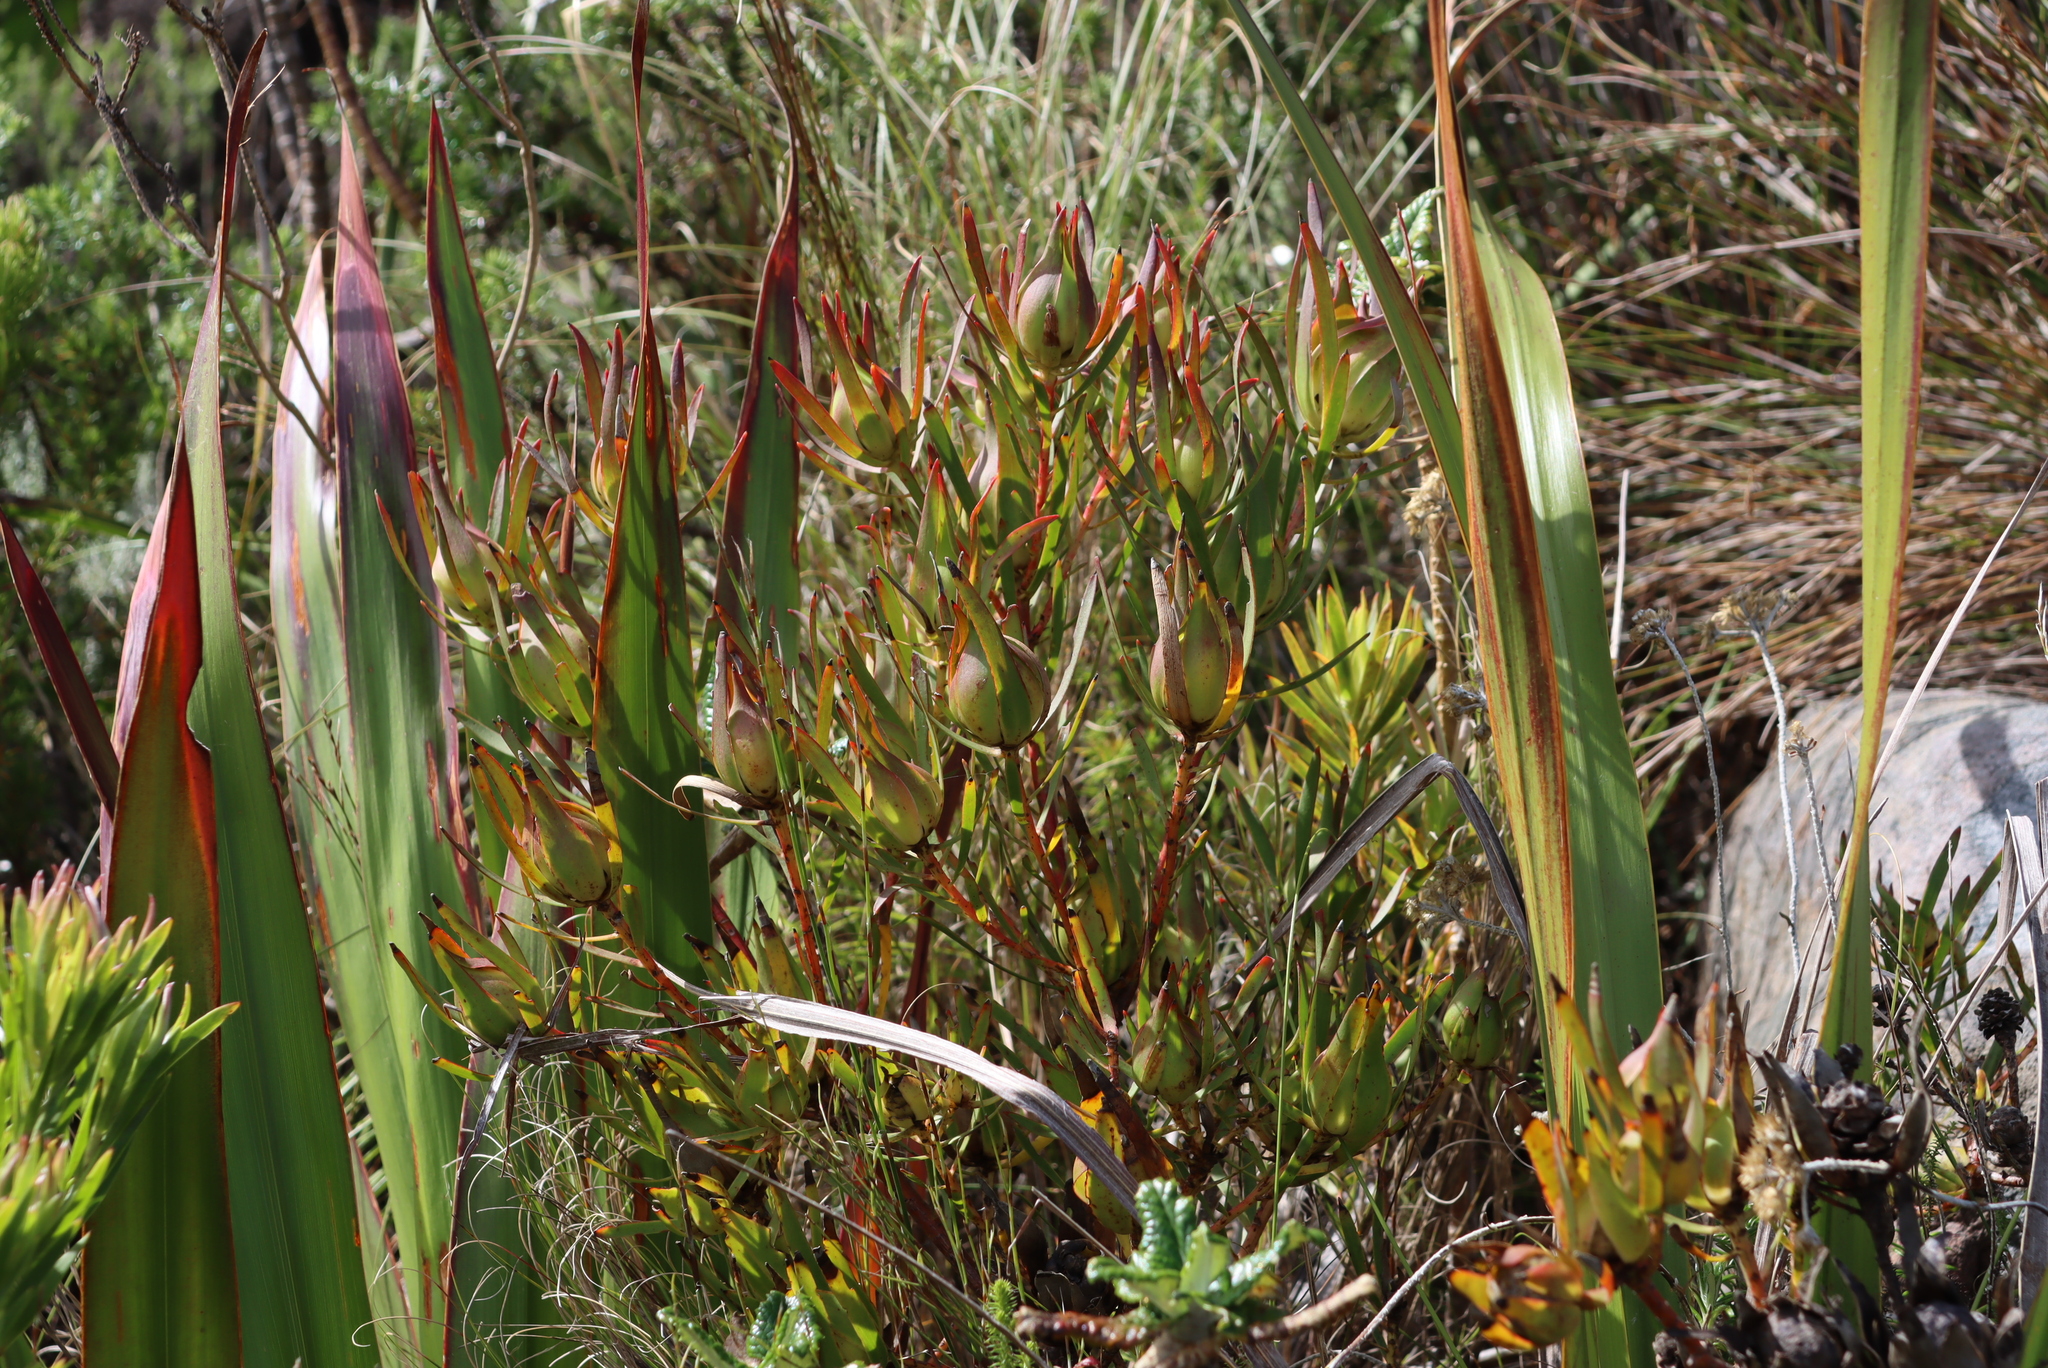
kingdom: Plantae
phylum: Tracheophyta
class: Magnoliopsida
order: Proteales
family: Proteaceae
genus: Leucadendron
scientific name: Leucadendron salignum
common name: Common sunshine conebush
